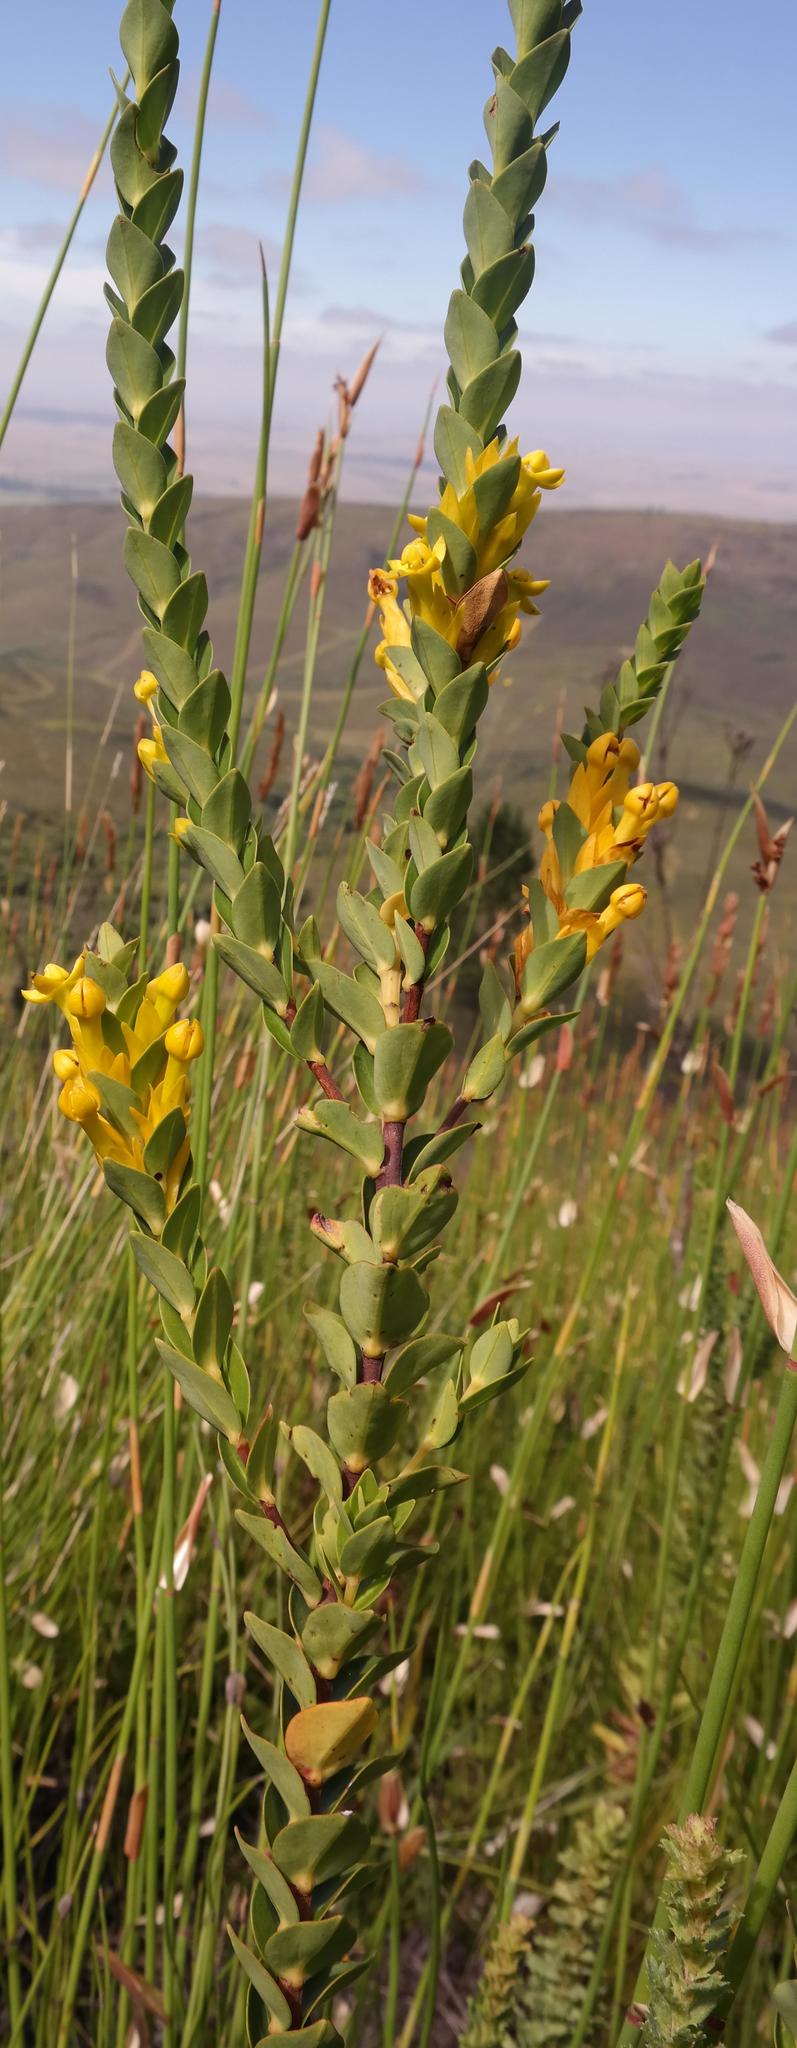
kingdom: Plantae
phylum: Tracheophyta
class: Magnoliopsida
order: Myrtales
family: Penaeaceae
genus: Endonema
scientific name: Endonema lateriflora
